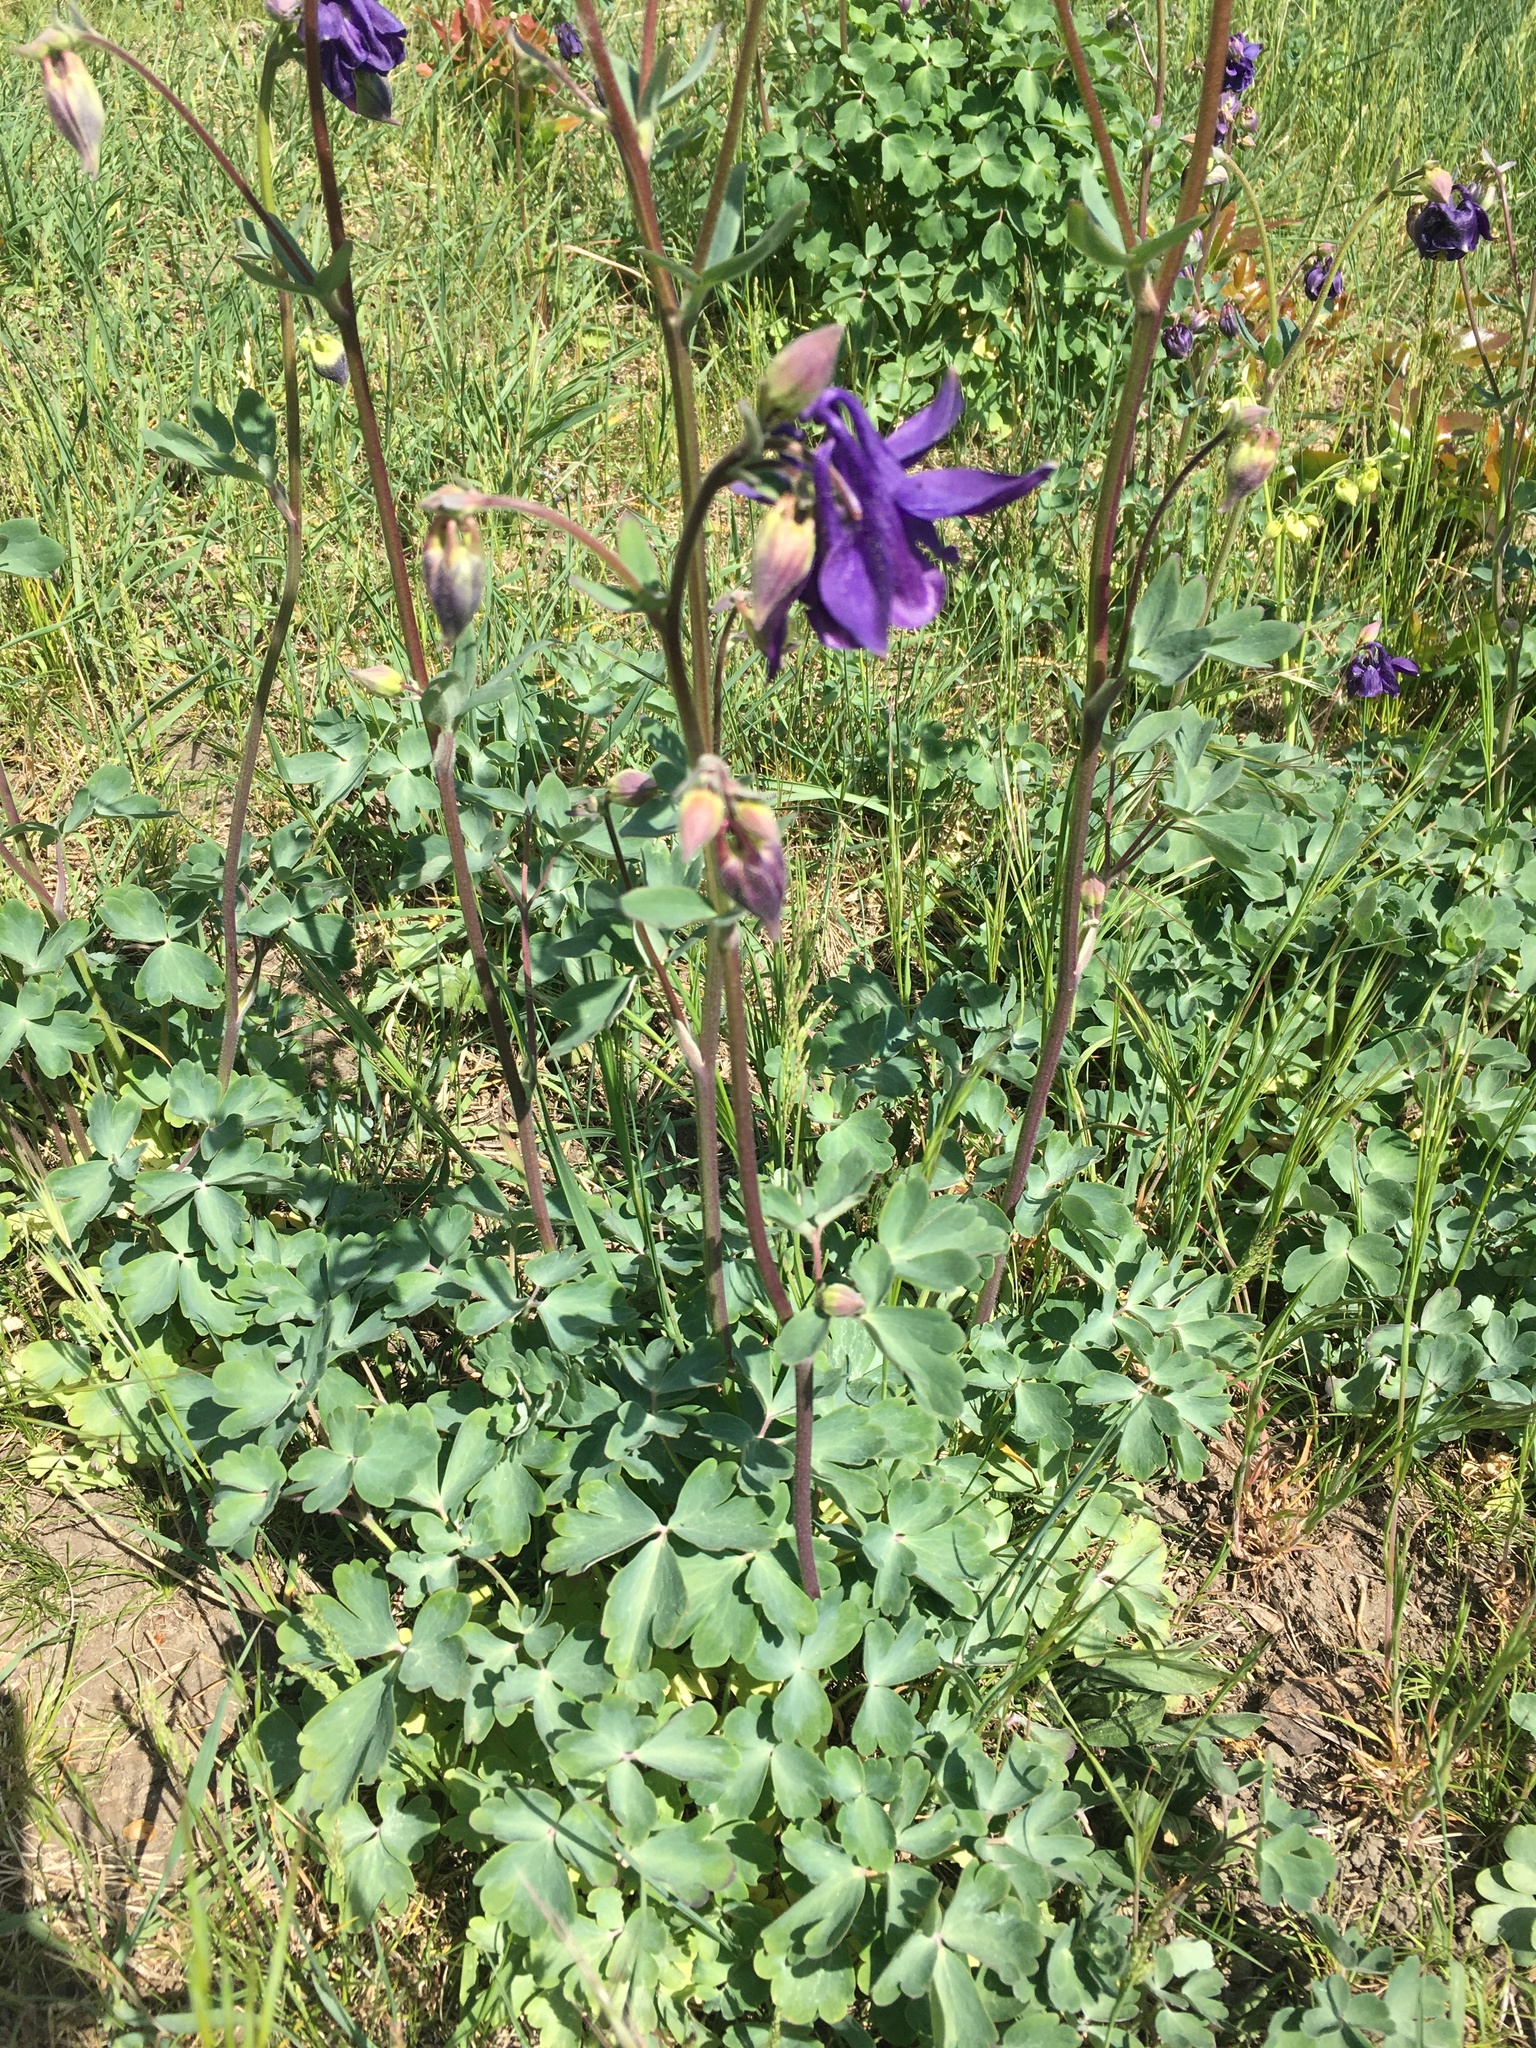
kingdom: Plantae
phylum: Tracheophyta
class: Magnoliopsida
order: Ranunculales
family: Ranunculaceae
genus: Aquilegia
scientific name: Aquilegia vulgaris
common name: Columbine
